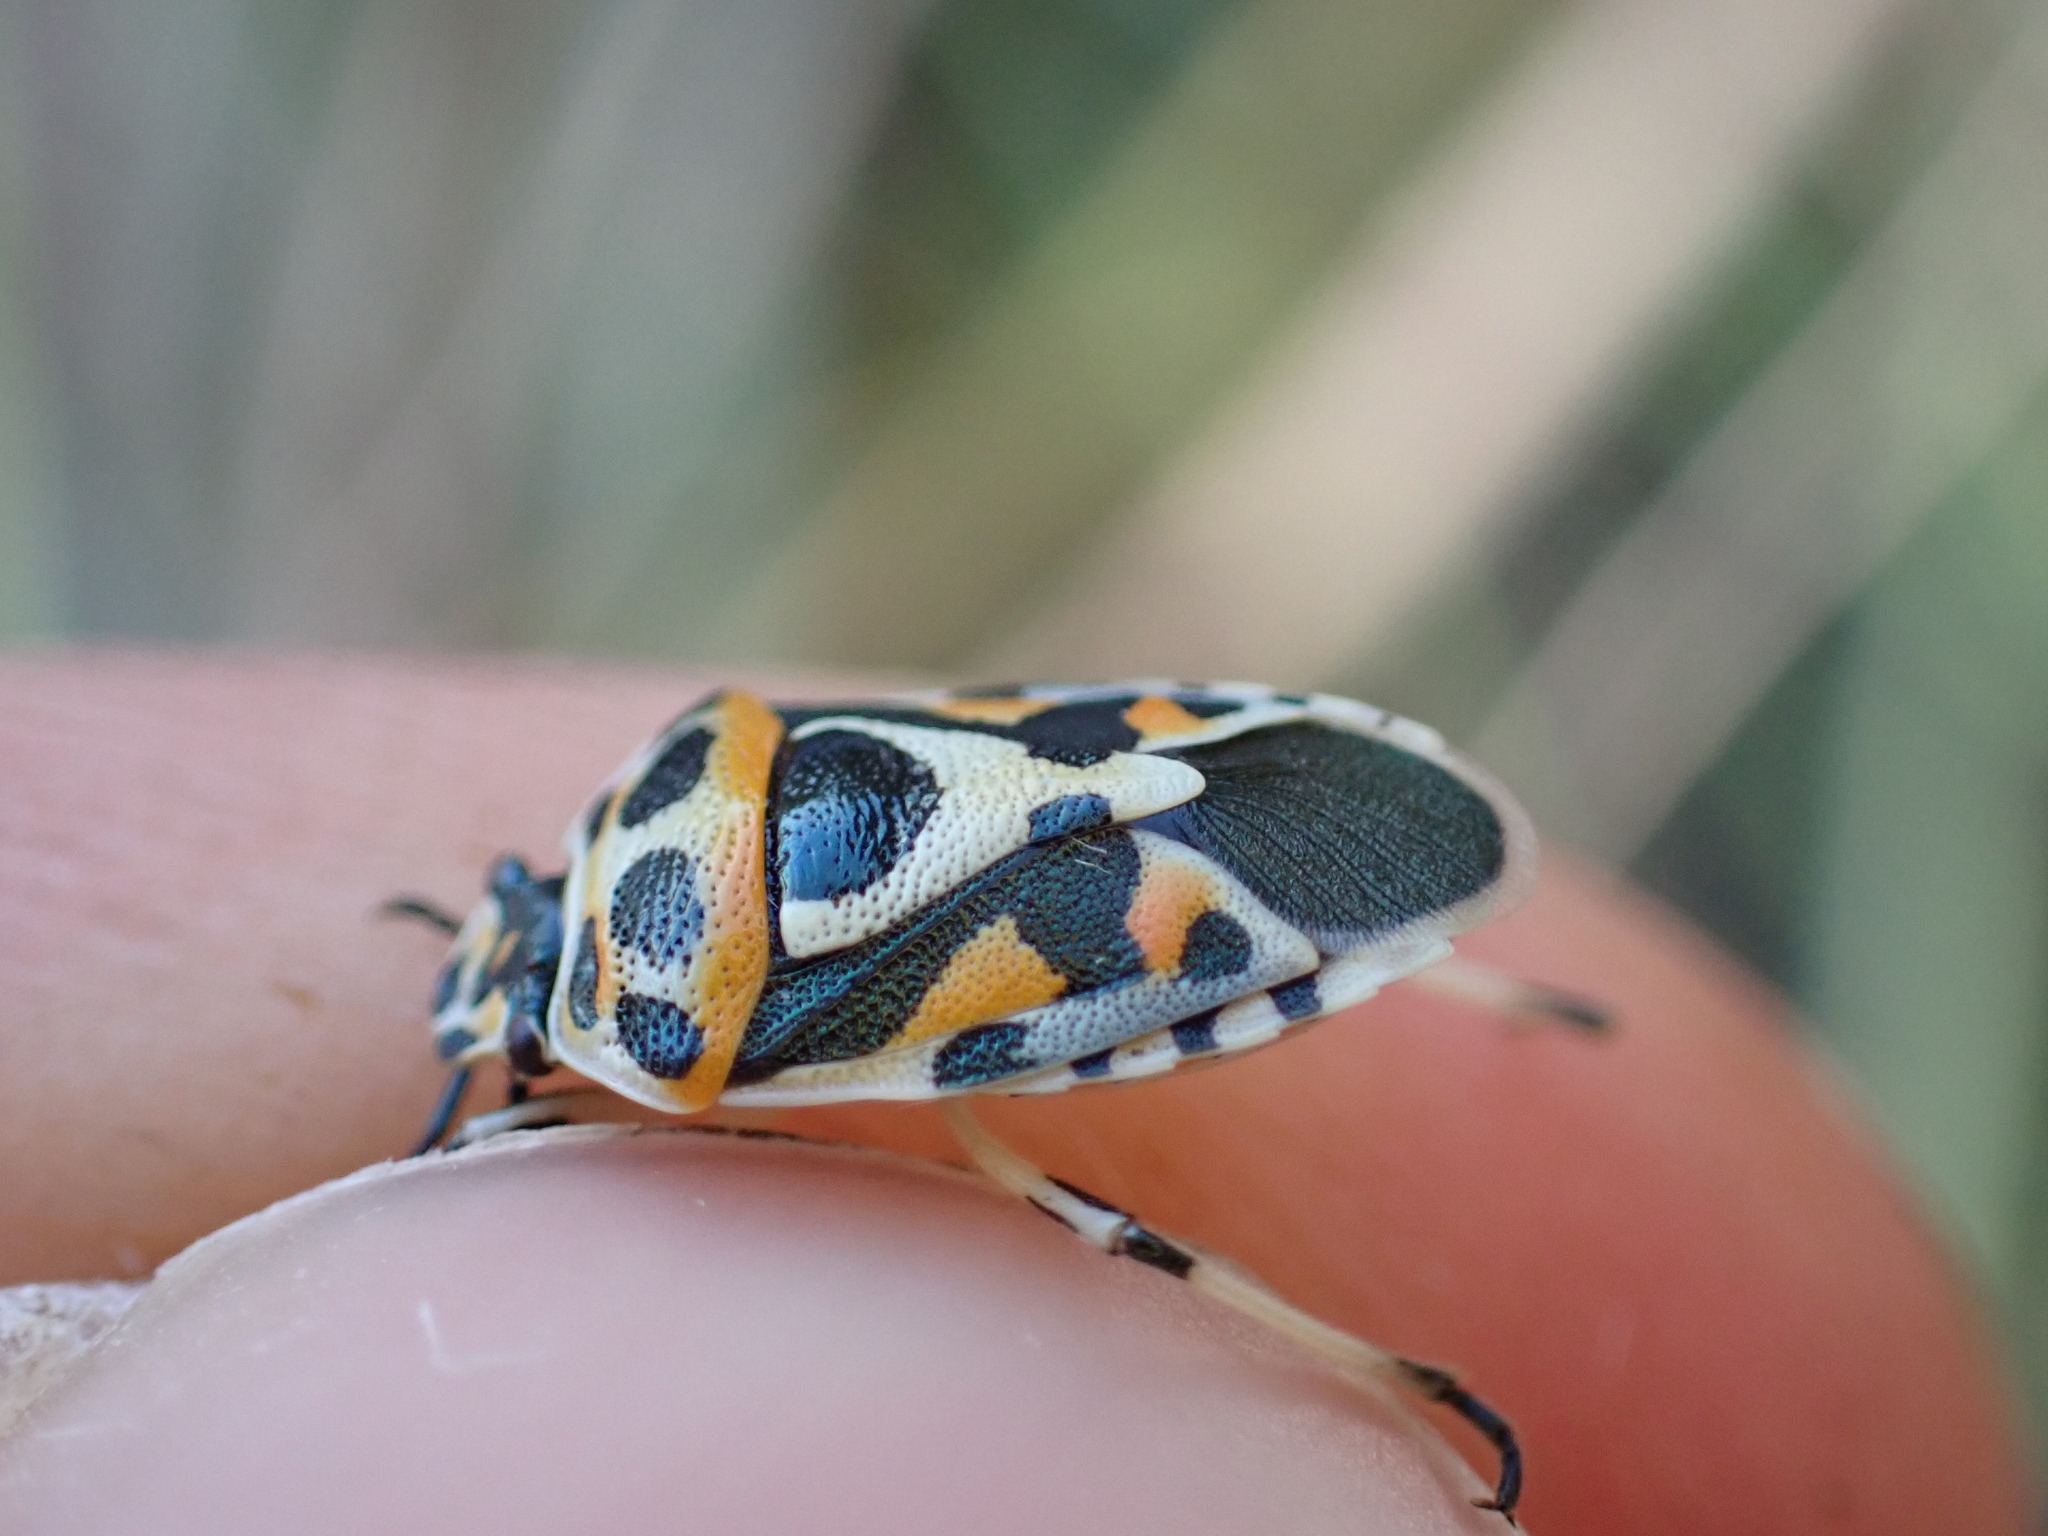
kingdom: Animalia
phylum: Arthropoda
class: Insecta
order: Hemiptera
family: Pentatomidae
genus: Eurydema
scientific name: Eurydema ornata
